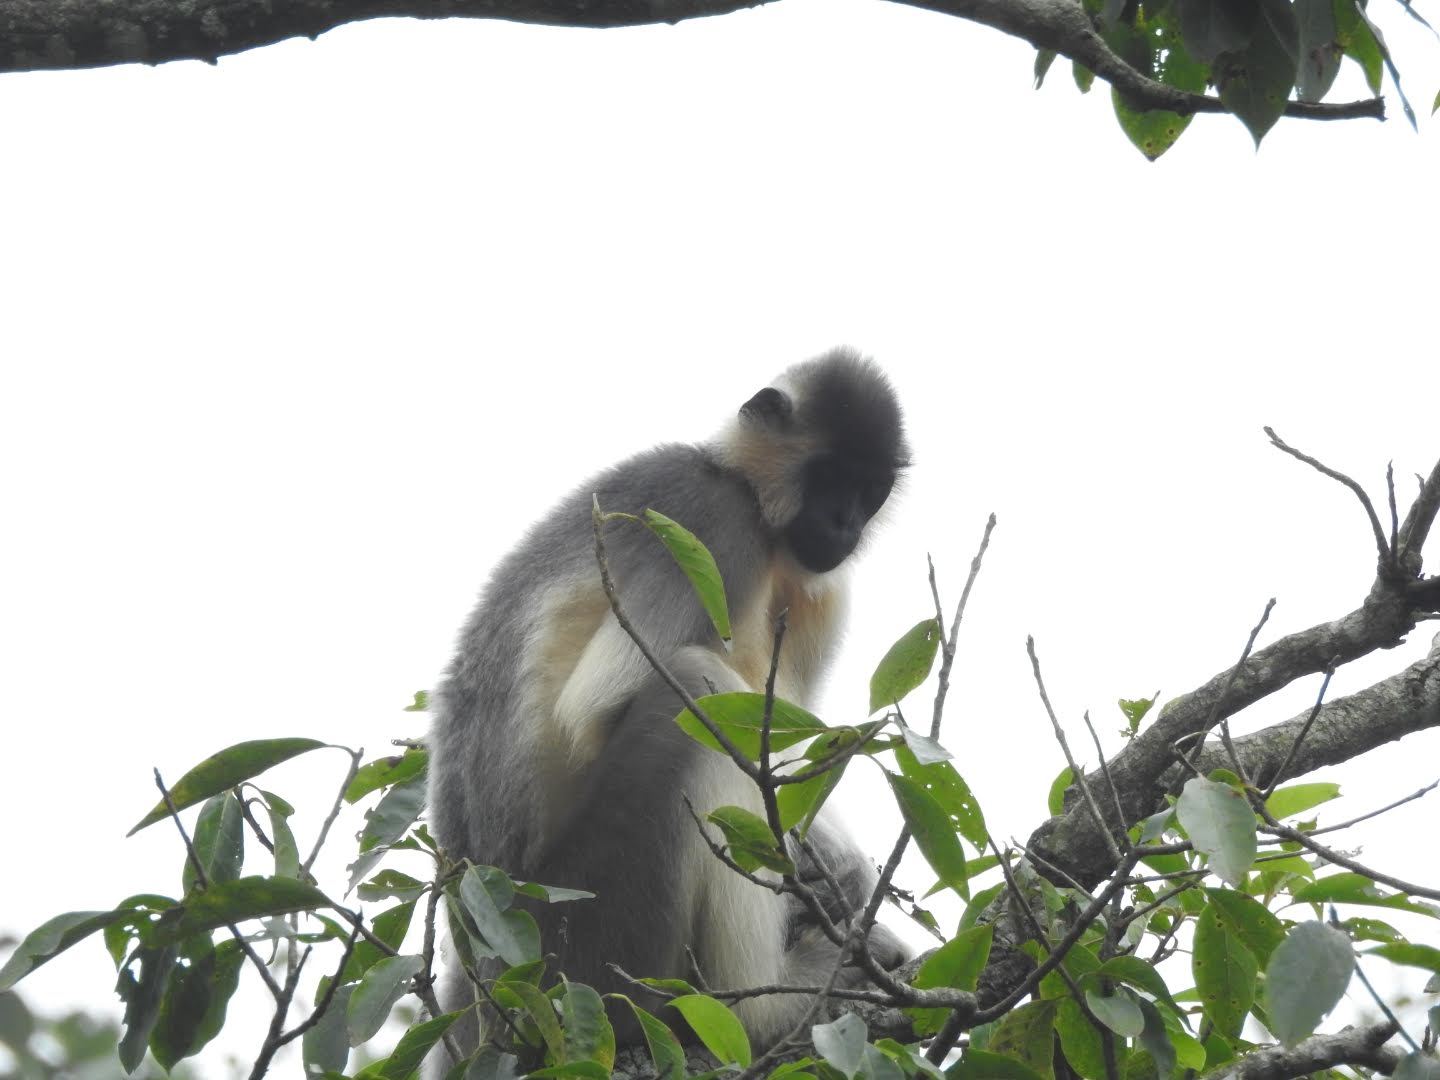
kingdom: Animalia
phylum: Chordata
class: Mammalia
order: Primates
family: Cercopithecidae
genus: Trachypithecus
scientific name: Trachypithecus pileatus
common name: Capped langur
